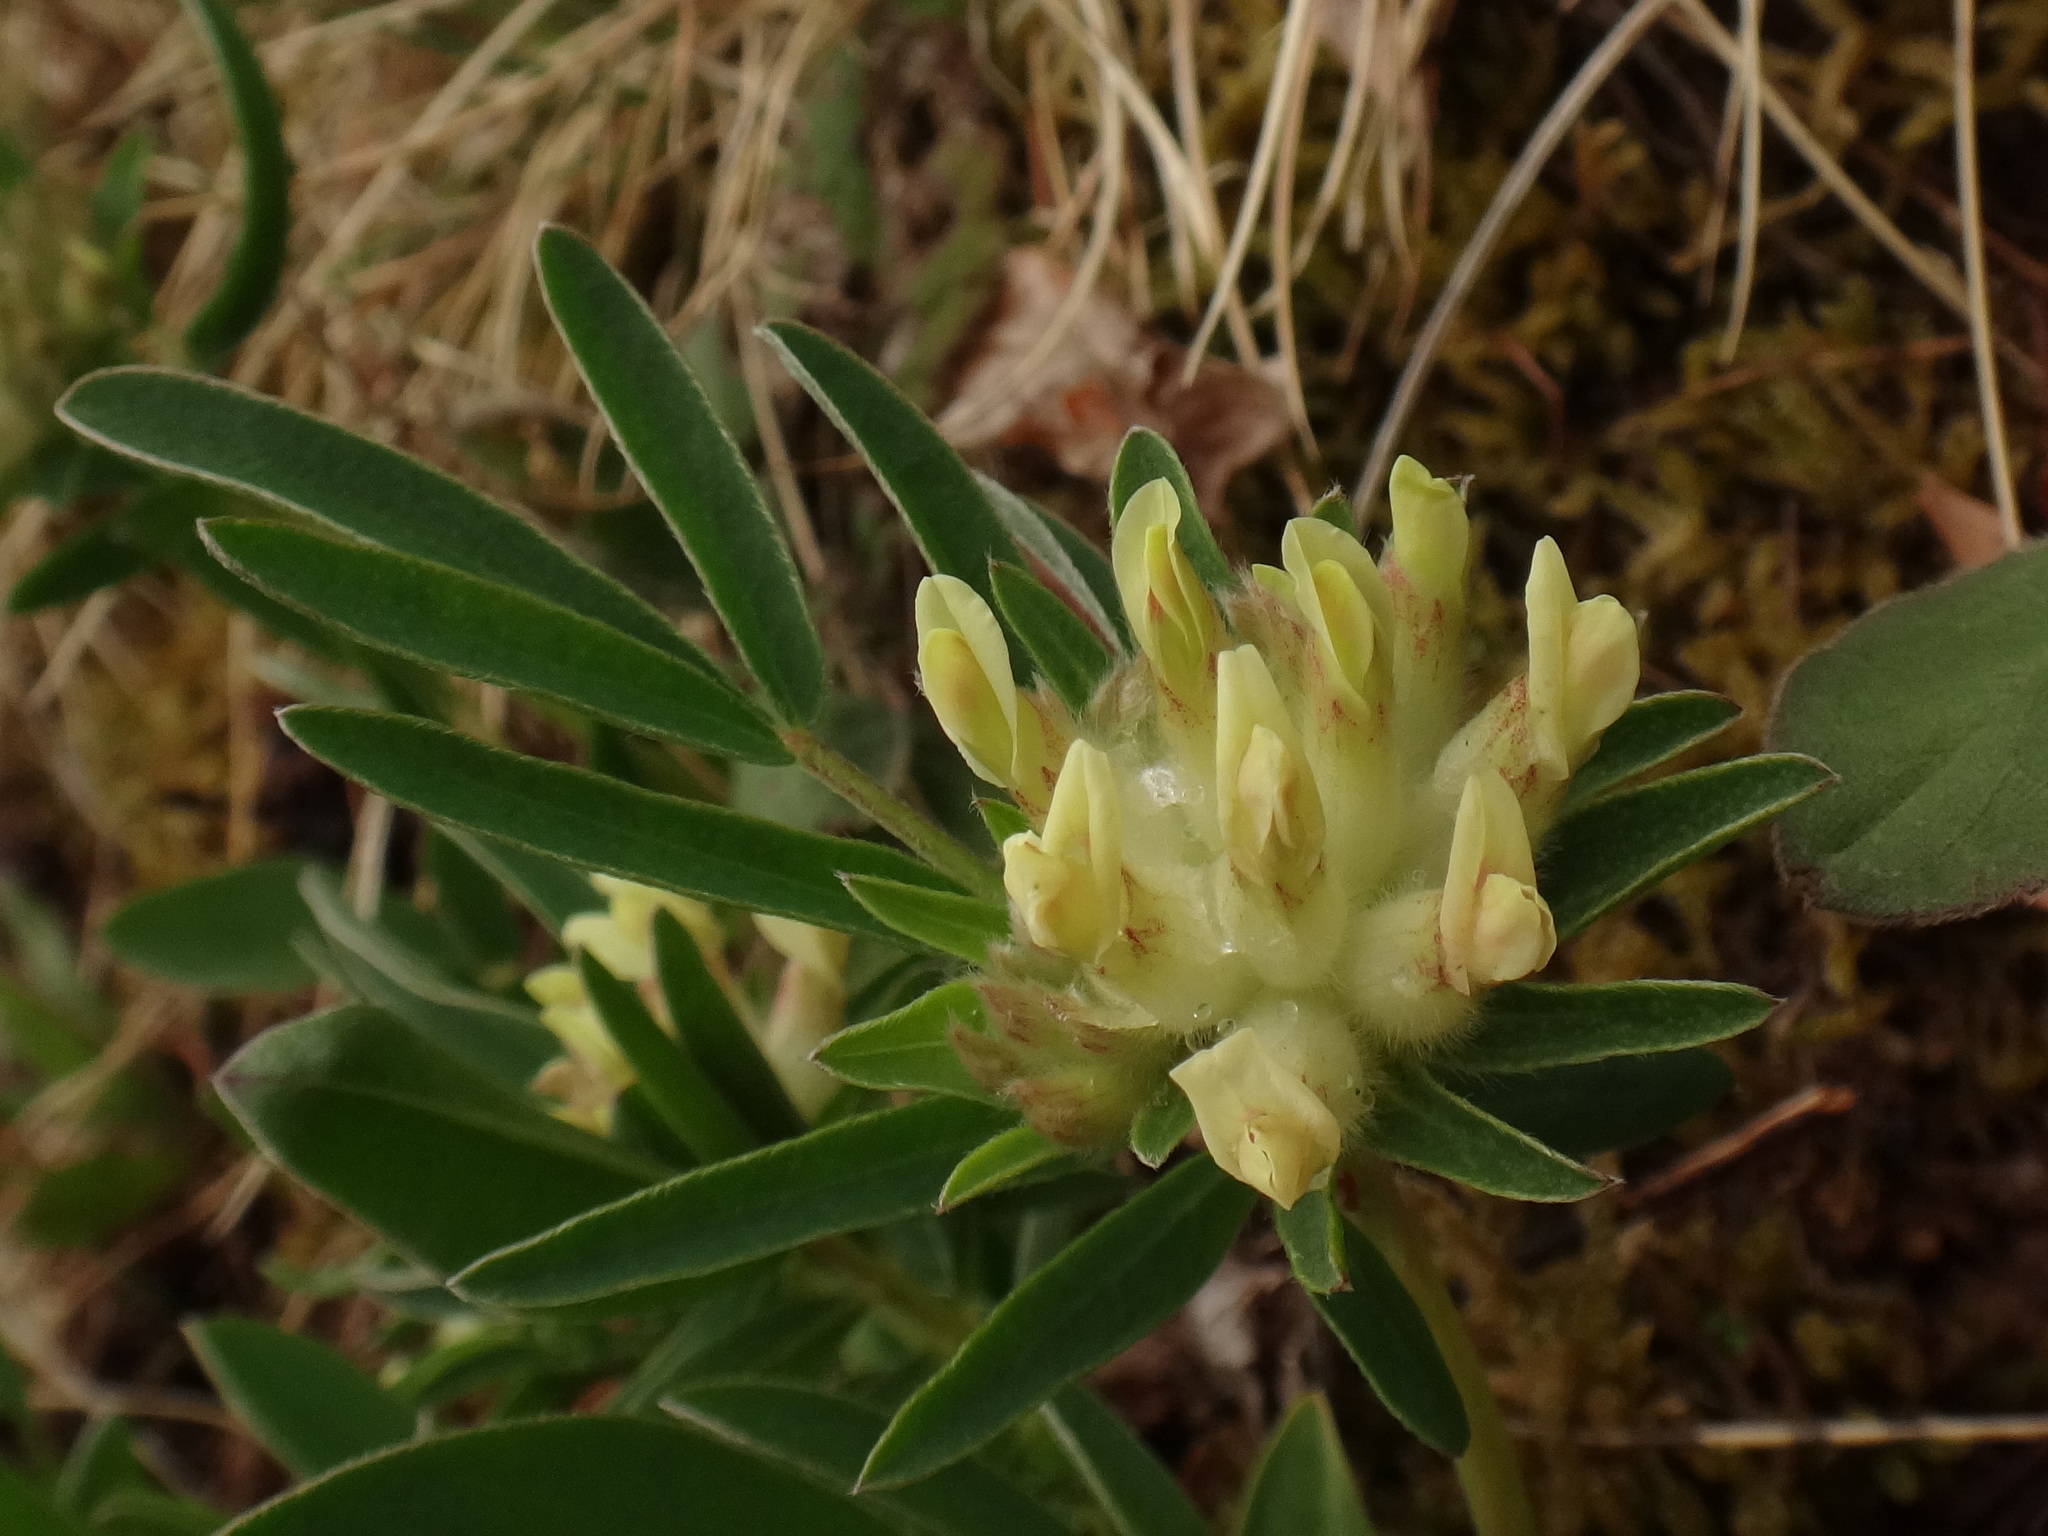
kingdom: Plantae
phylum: Tracheophyta
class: Magnoliopsida
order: Fabales
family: Fabaceae
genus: Anthyllis
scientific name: Anthyllis vulneraria
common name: Kidney vetch
